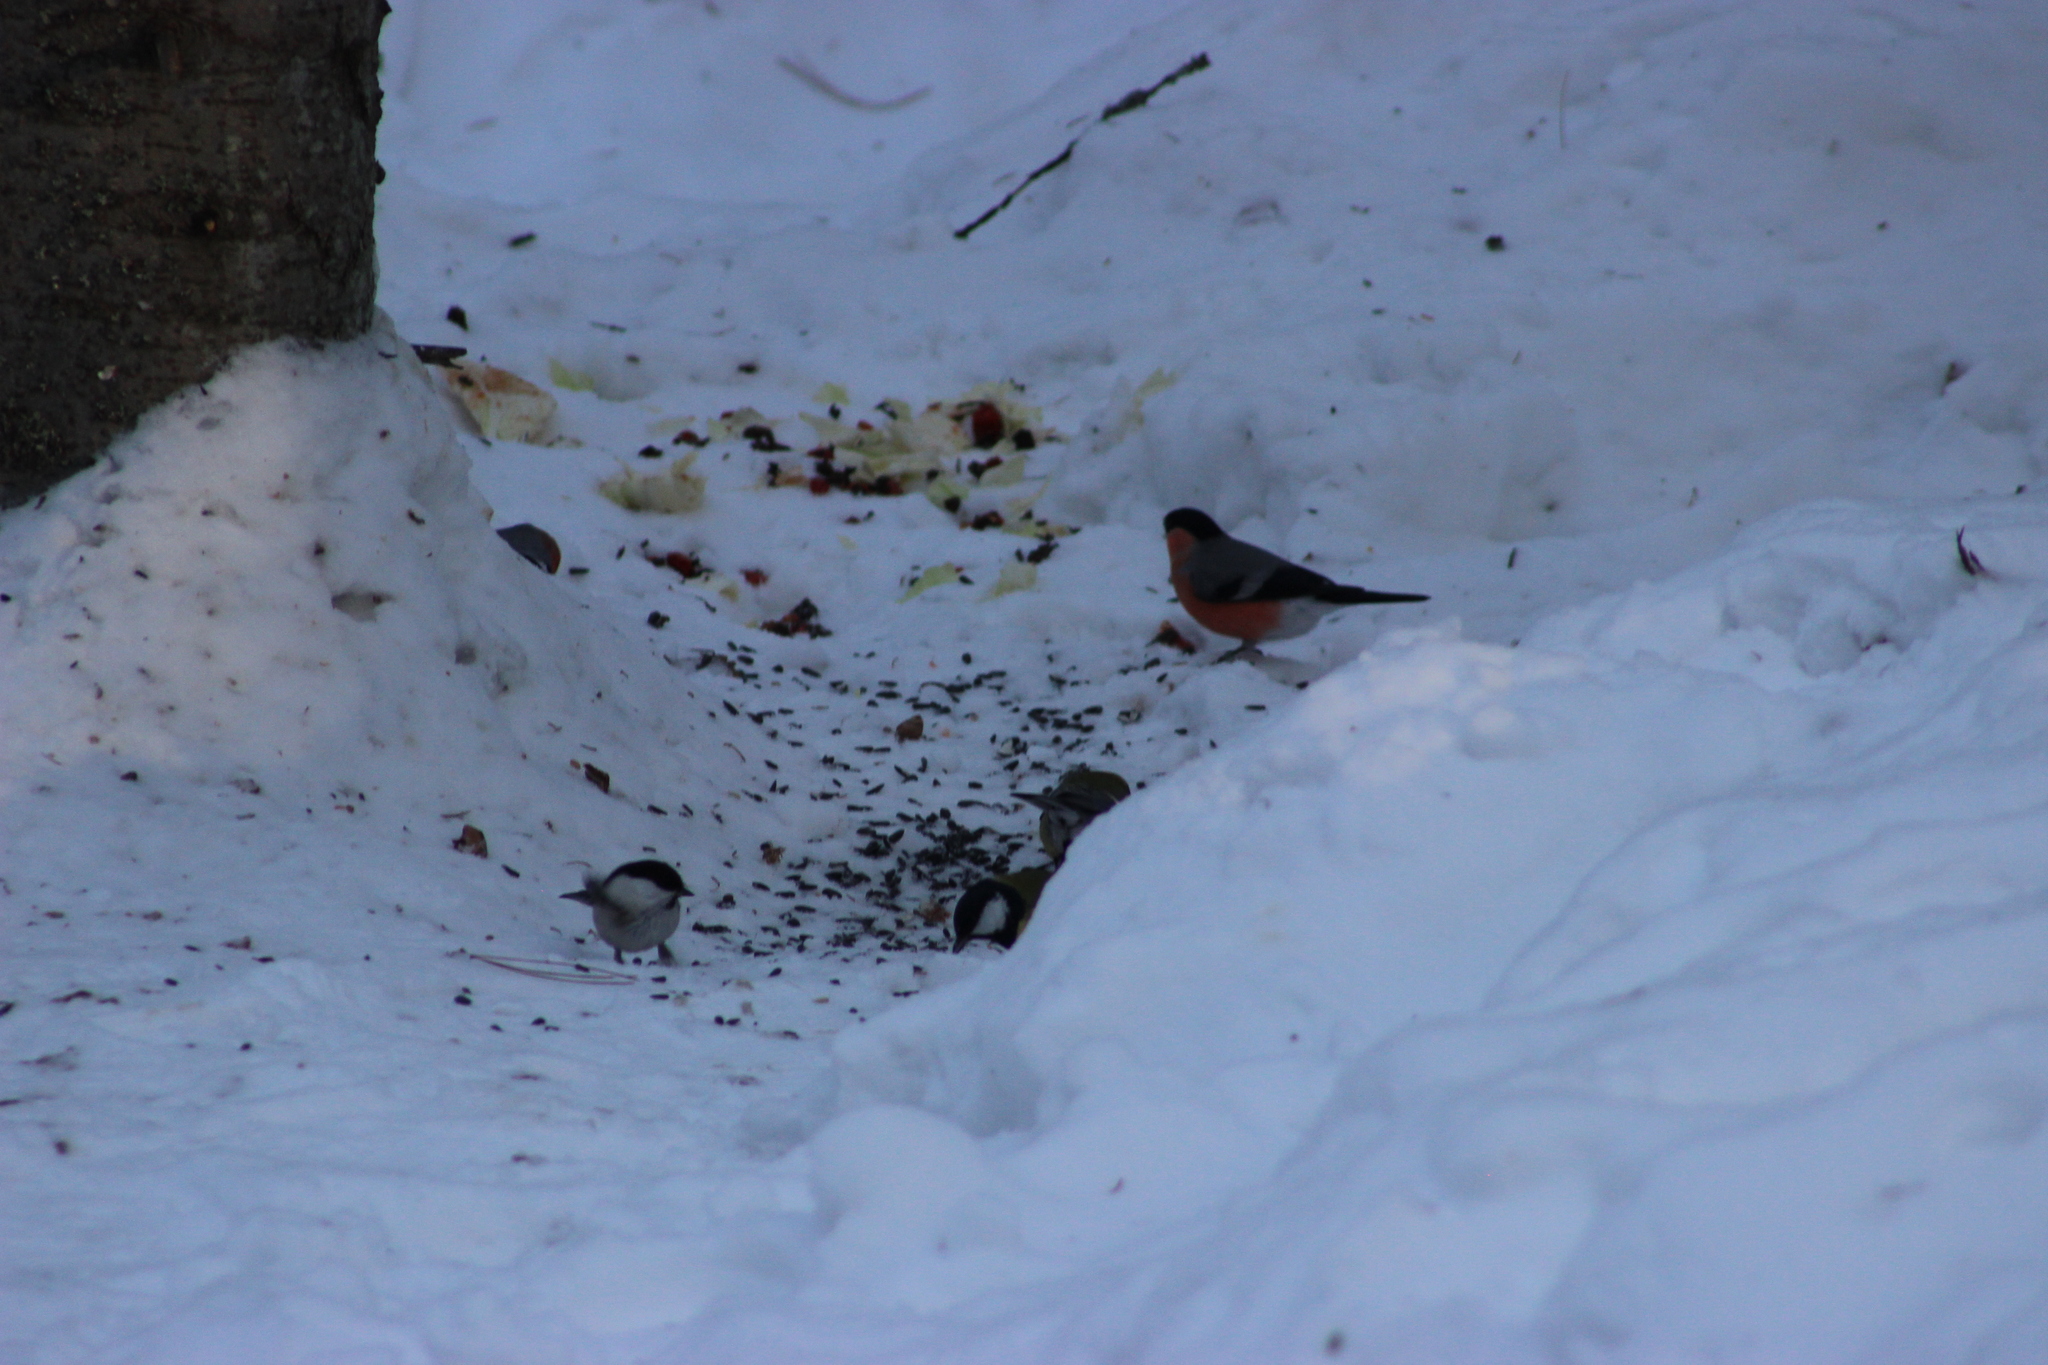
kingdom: Animalia
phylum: Chordata
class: Aves
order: Passeriformes
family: Paridae
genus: Poecile
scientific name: Poecile montanus
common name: Willow tit
